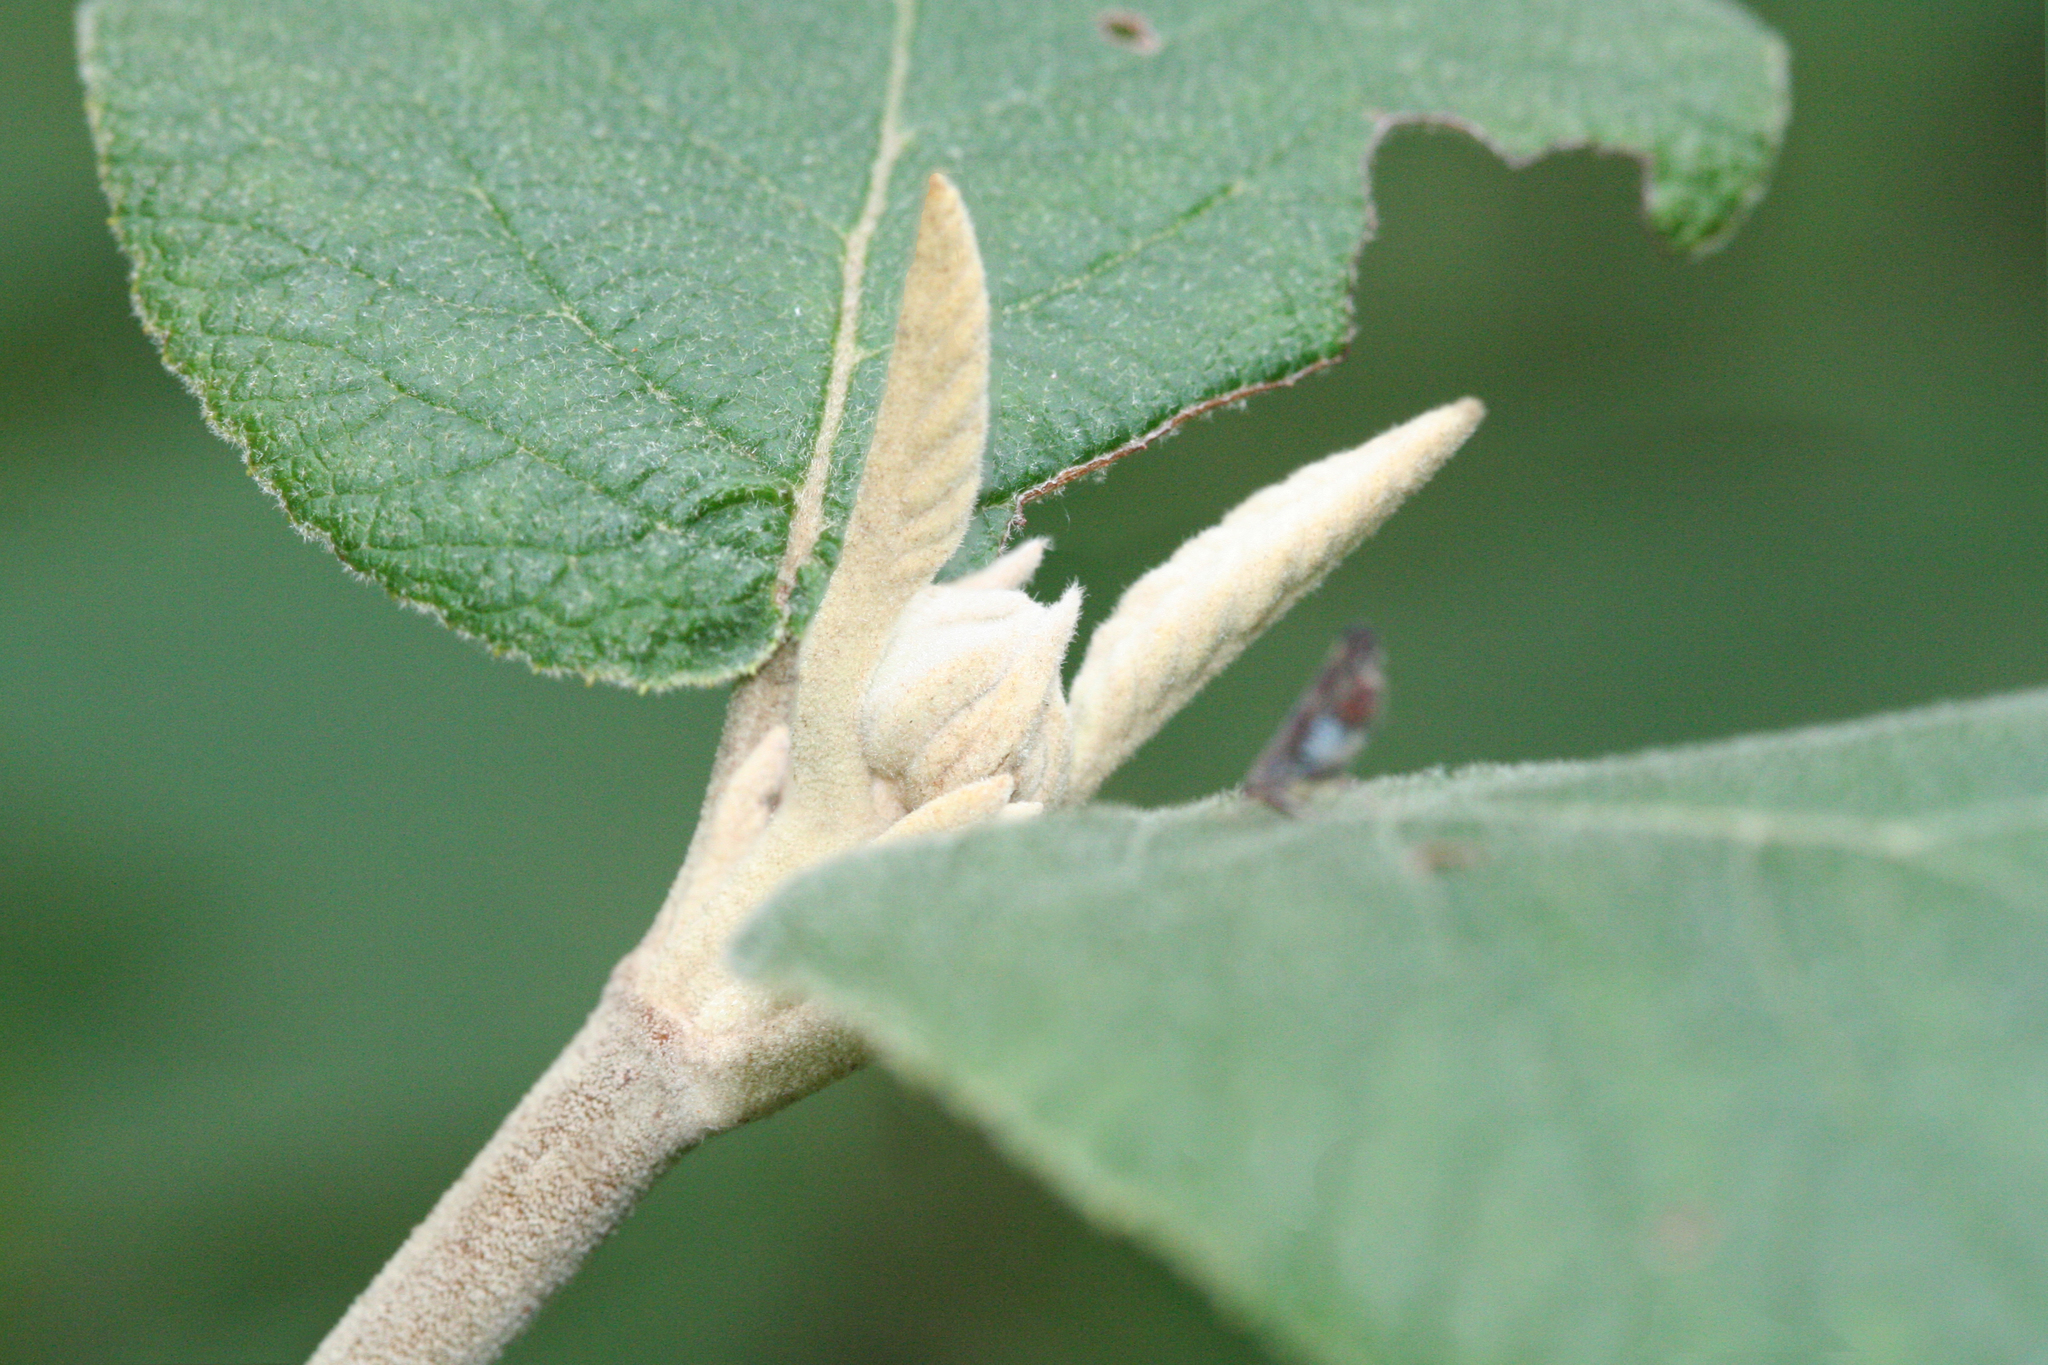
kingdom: Plantae
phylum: Tracheophyta
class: Magnoliopsida
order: Dipsacales
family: Viburnaceae
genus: Viburnum
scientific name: Viburnum lantana
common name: Wayfaring tree
